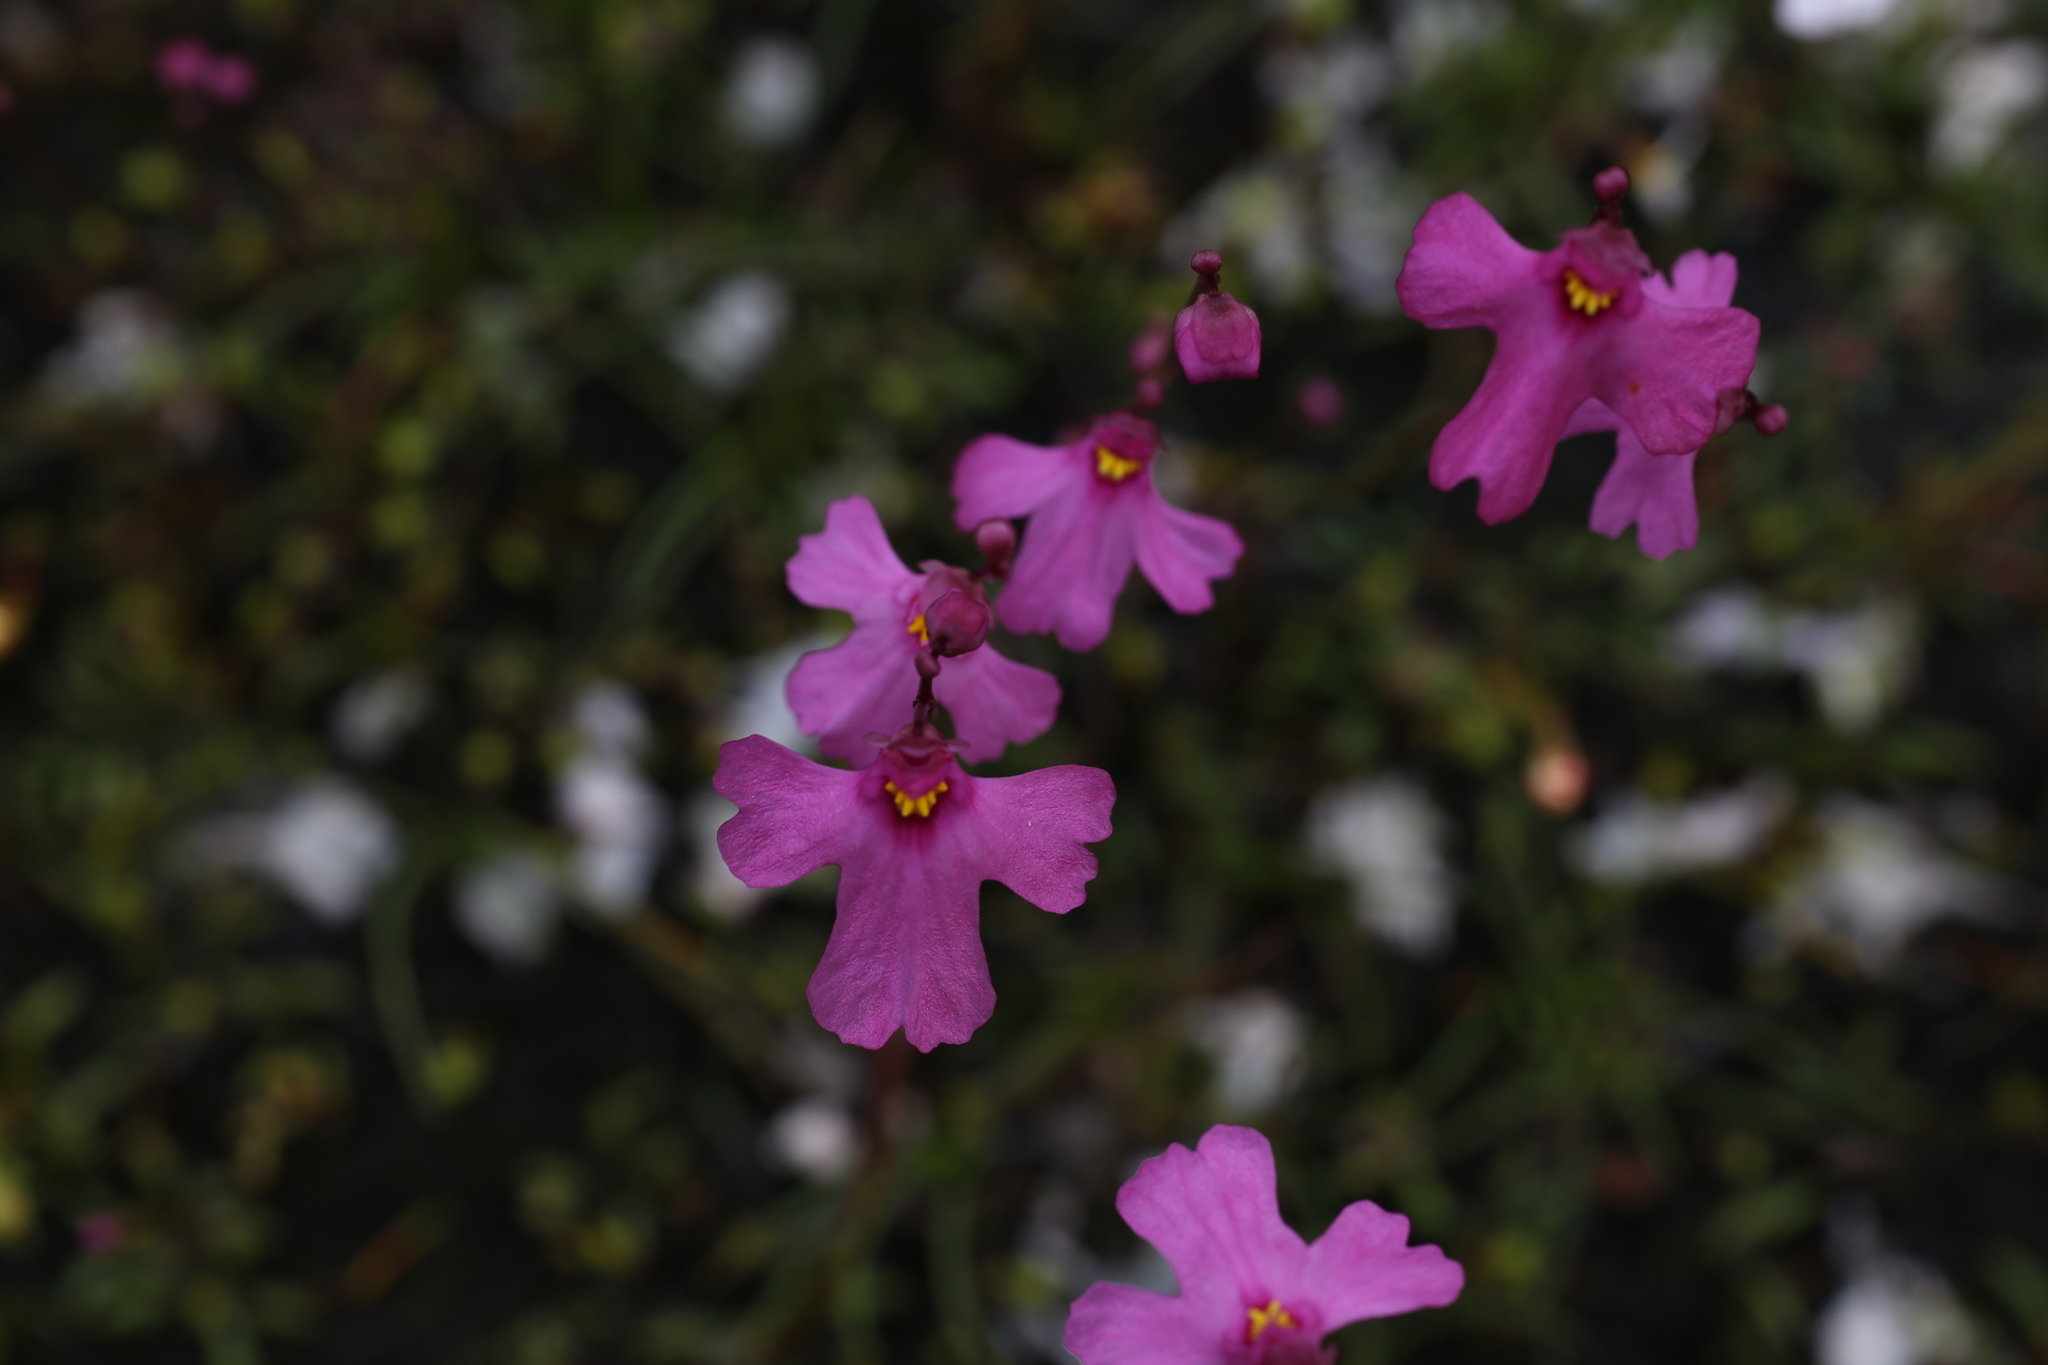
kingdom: Plantae
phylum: Tracheophyta
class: Magnoliopsida
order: Lamiales
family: Lentibulariaceae
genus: Utricularia
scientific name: Utricularia multifida
